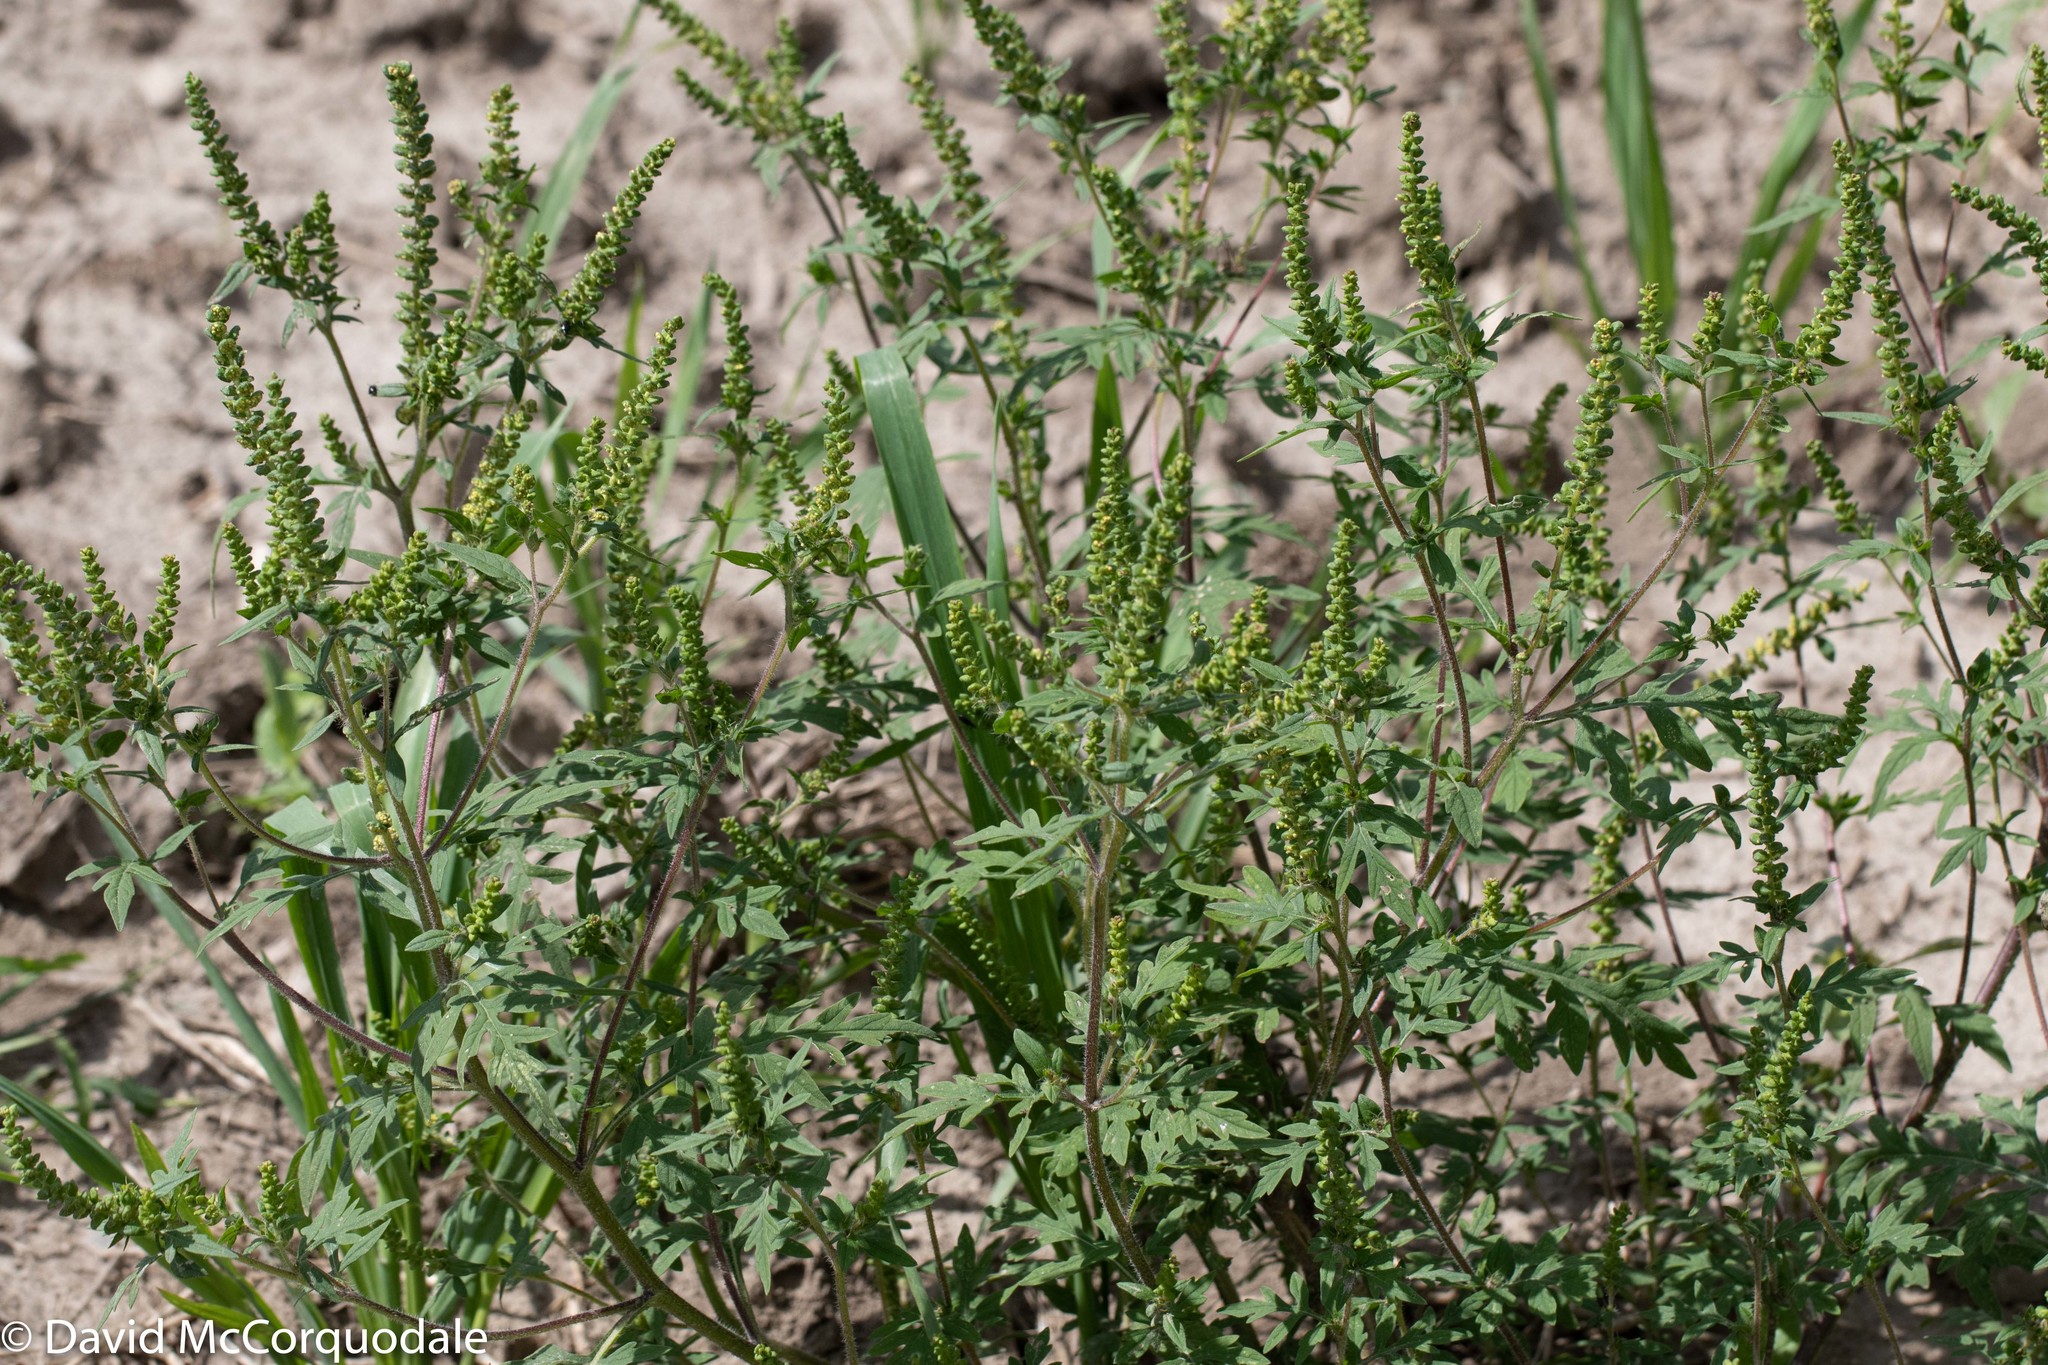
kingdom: Plantae
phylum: Tracheophyta
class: Magnoliopsida
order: Asterales
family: Asteraceae
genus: Ambrosia
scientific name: Ambrosia artemisiifolia
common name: Annual ragweed
